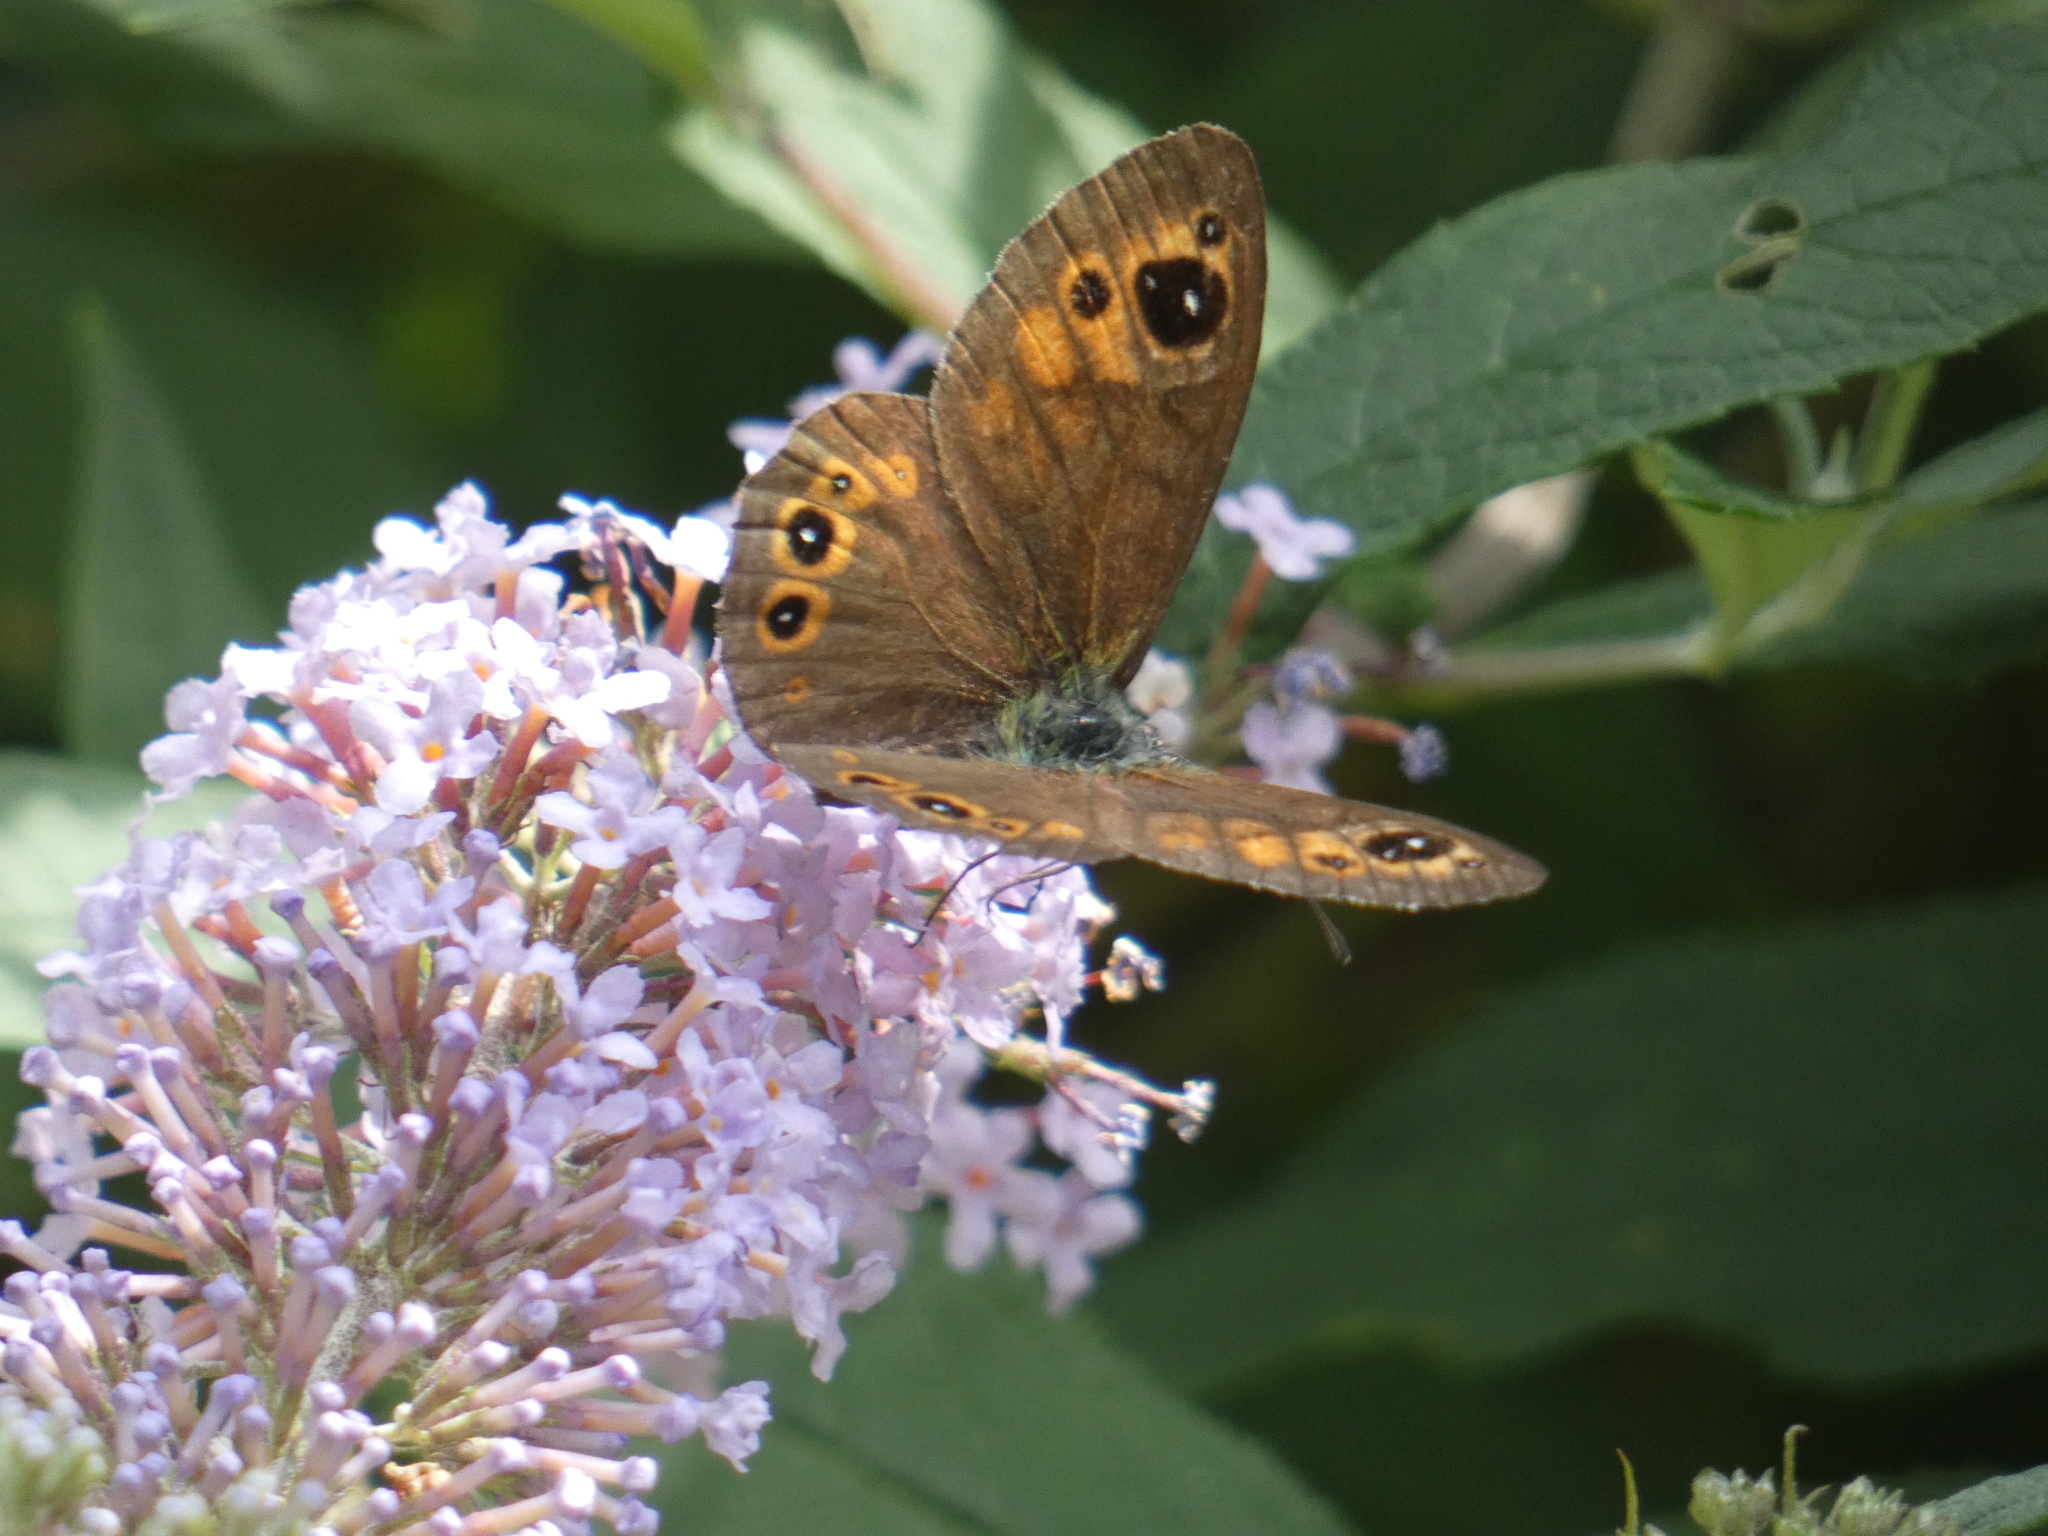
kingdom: Animalia
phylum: Arthropoda
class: Insecta
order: Lepidoptera
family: Nymphalidae
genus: Pararge
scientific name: Pararge Lasiommata maera
